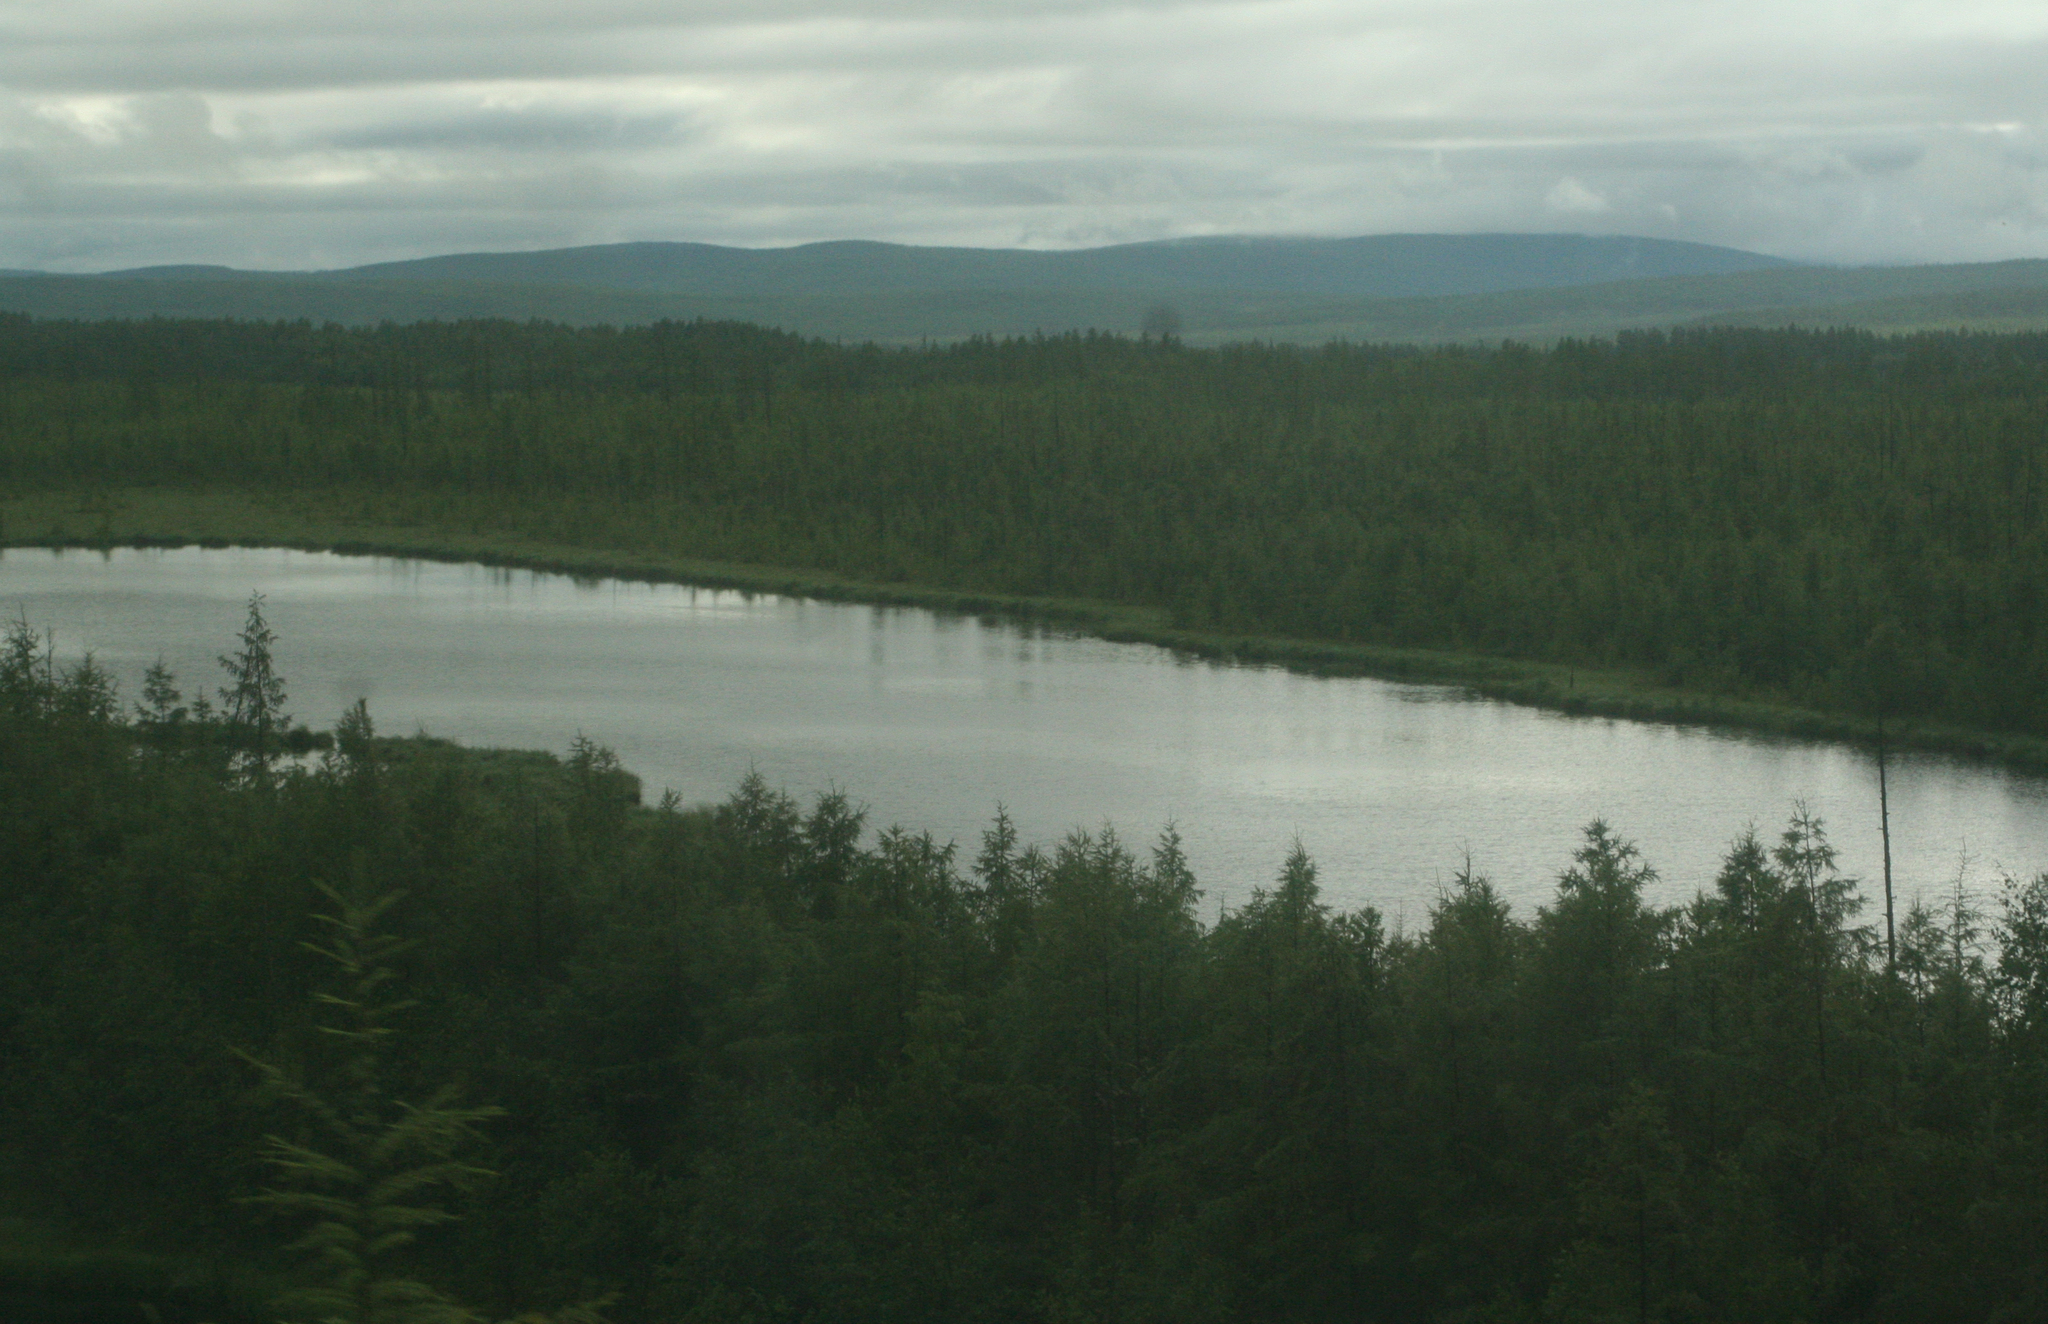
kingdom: Plantae
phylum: Tracheophyta
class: Pinopsida
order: Pinales
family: Pinaceae
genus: Larix
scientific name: Larix gmelinii
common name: Dahurian larch
